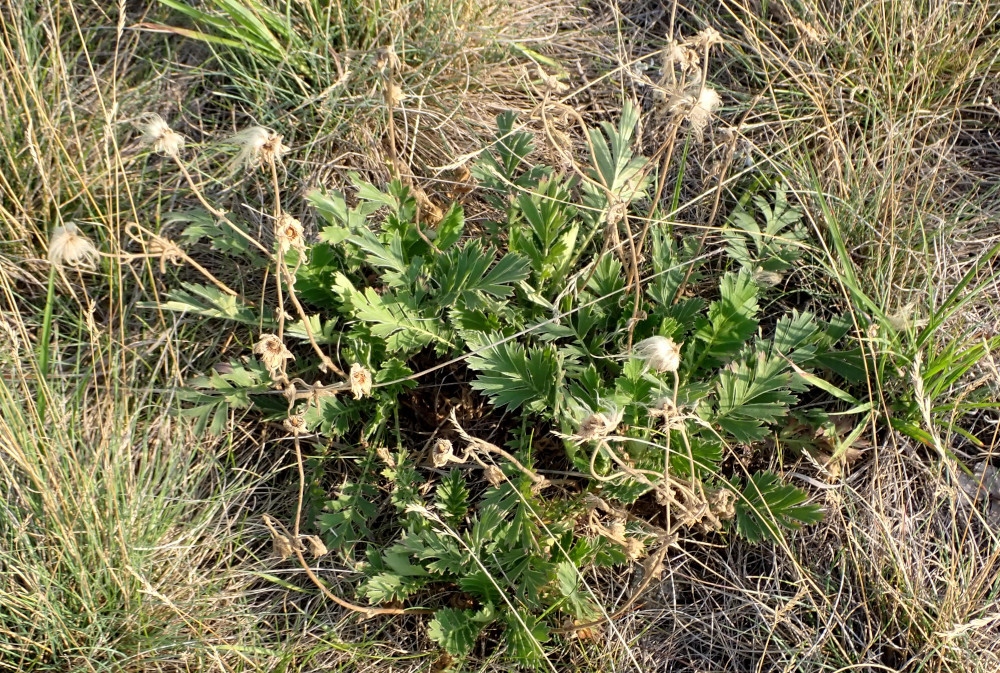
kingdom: Plantae
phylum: Tracheophyta
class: Magnoliopsida
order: Rosales
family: Rosaceae
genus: Geum
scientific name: Geum triflorum
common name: Old man's whiskers
